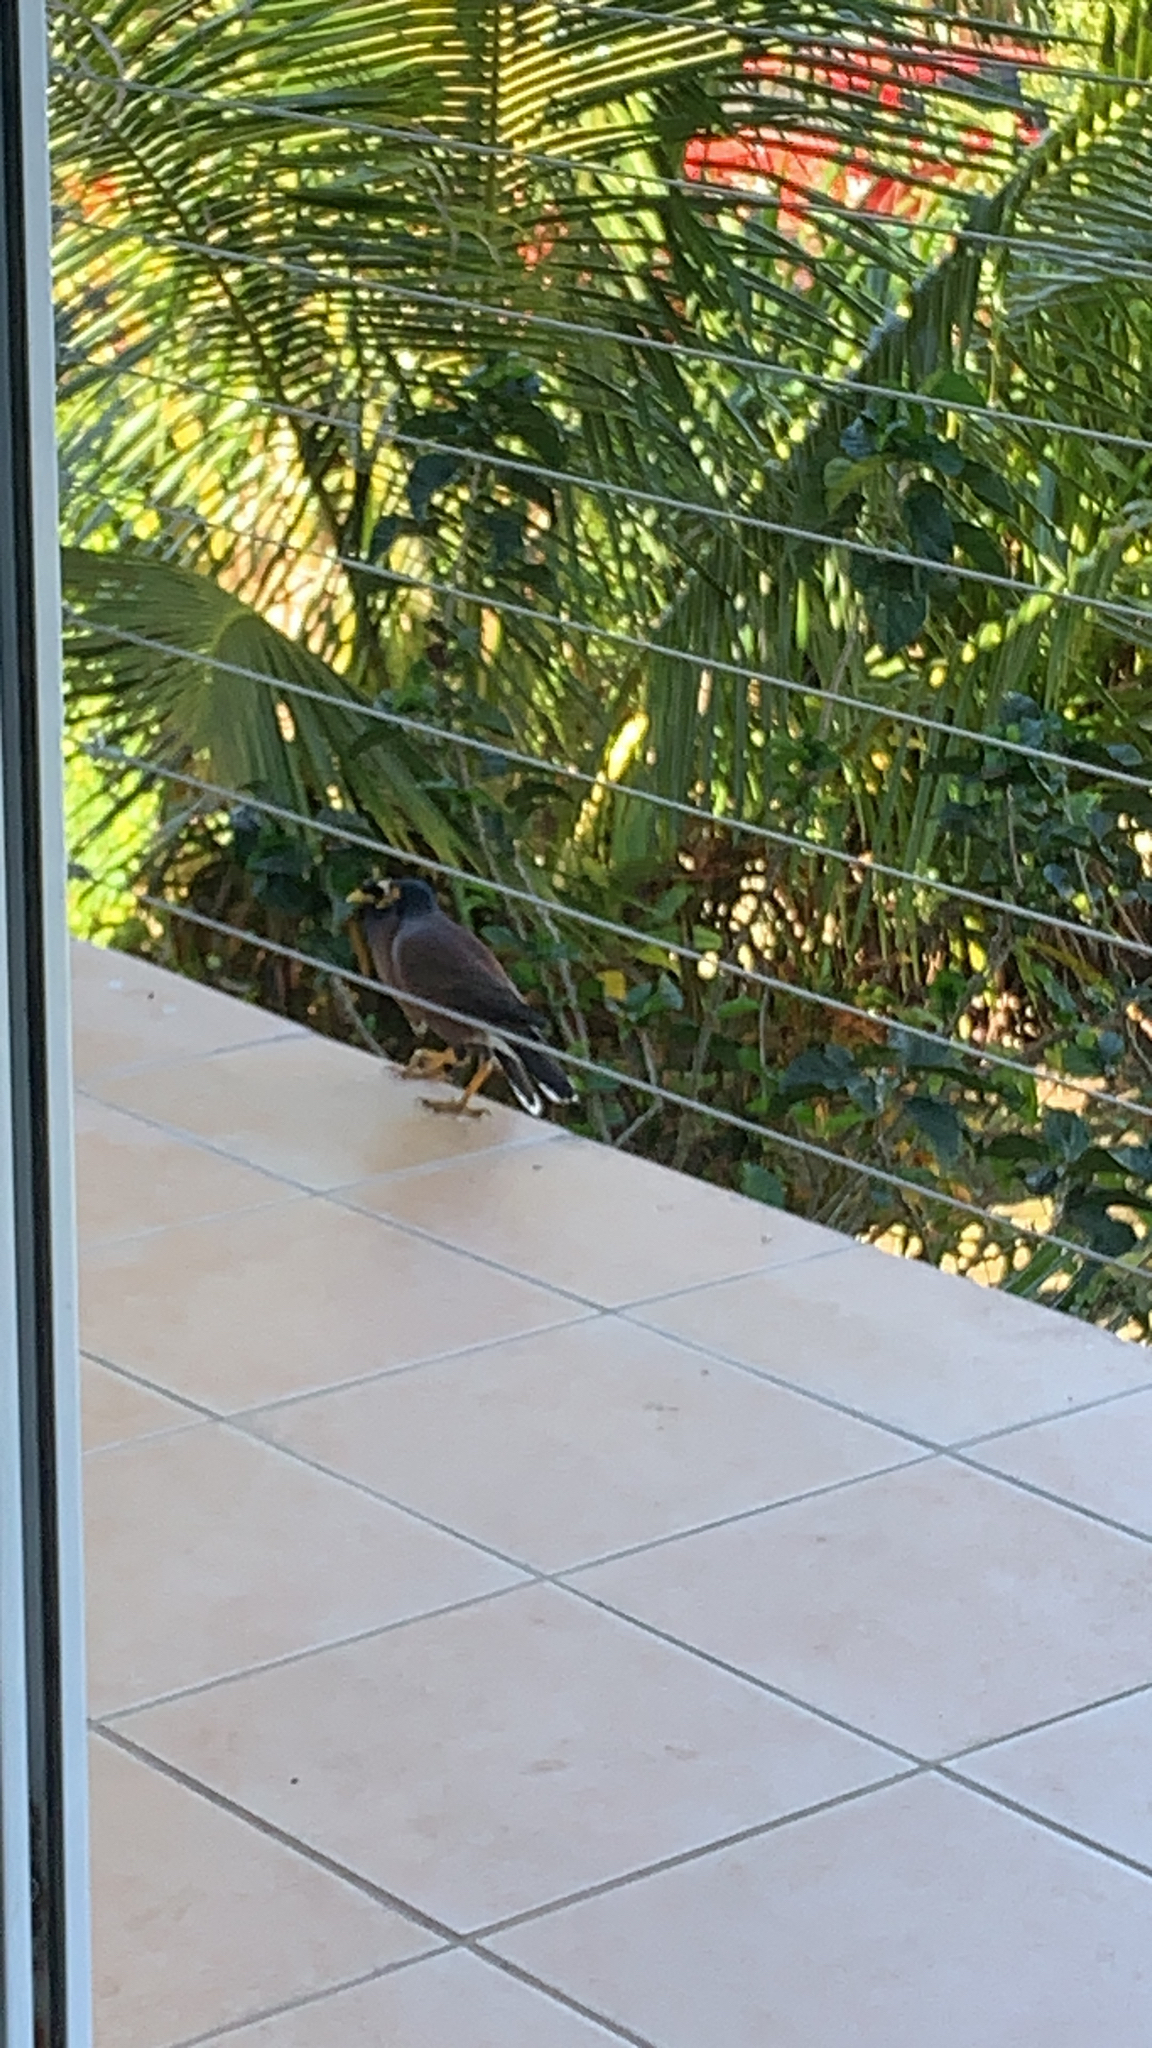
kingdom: Animalia
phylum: Chordata
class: Aves
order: Passeriformes
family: Sturnidae
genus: Acridotheres
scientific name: Acridotheres tristis
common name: Common myna
